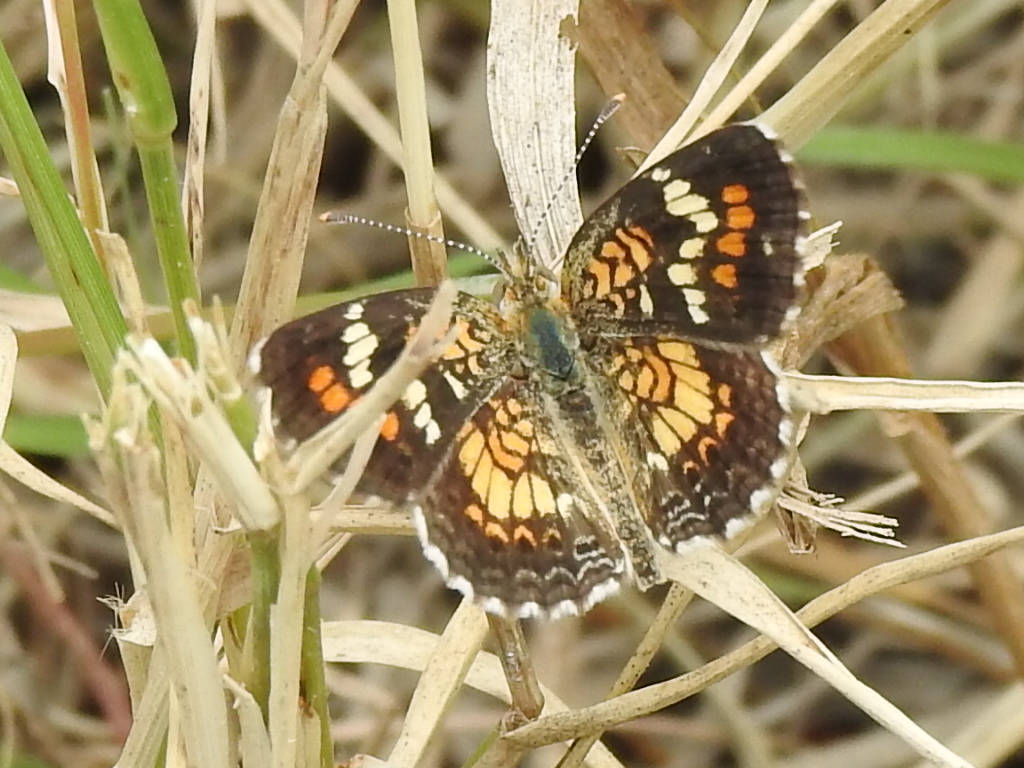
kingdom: Animalia
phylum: Arthropoda
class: Insecta
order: Lepidoptera
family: Nymphalidae
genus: Phyciodes
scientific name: Phyciodes phaon
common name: Phaon crescent
